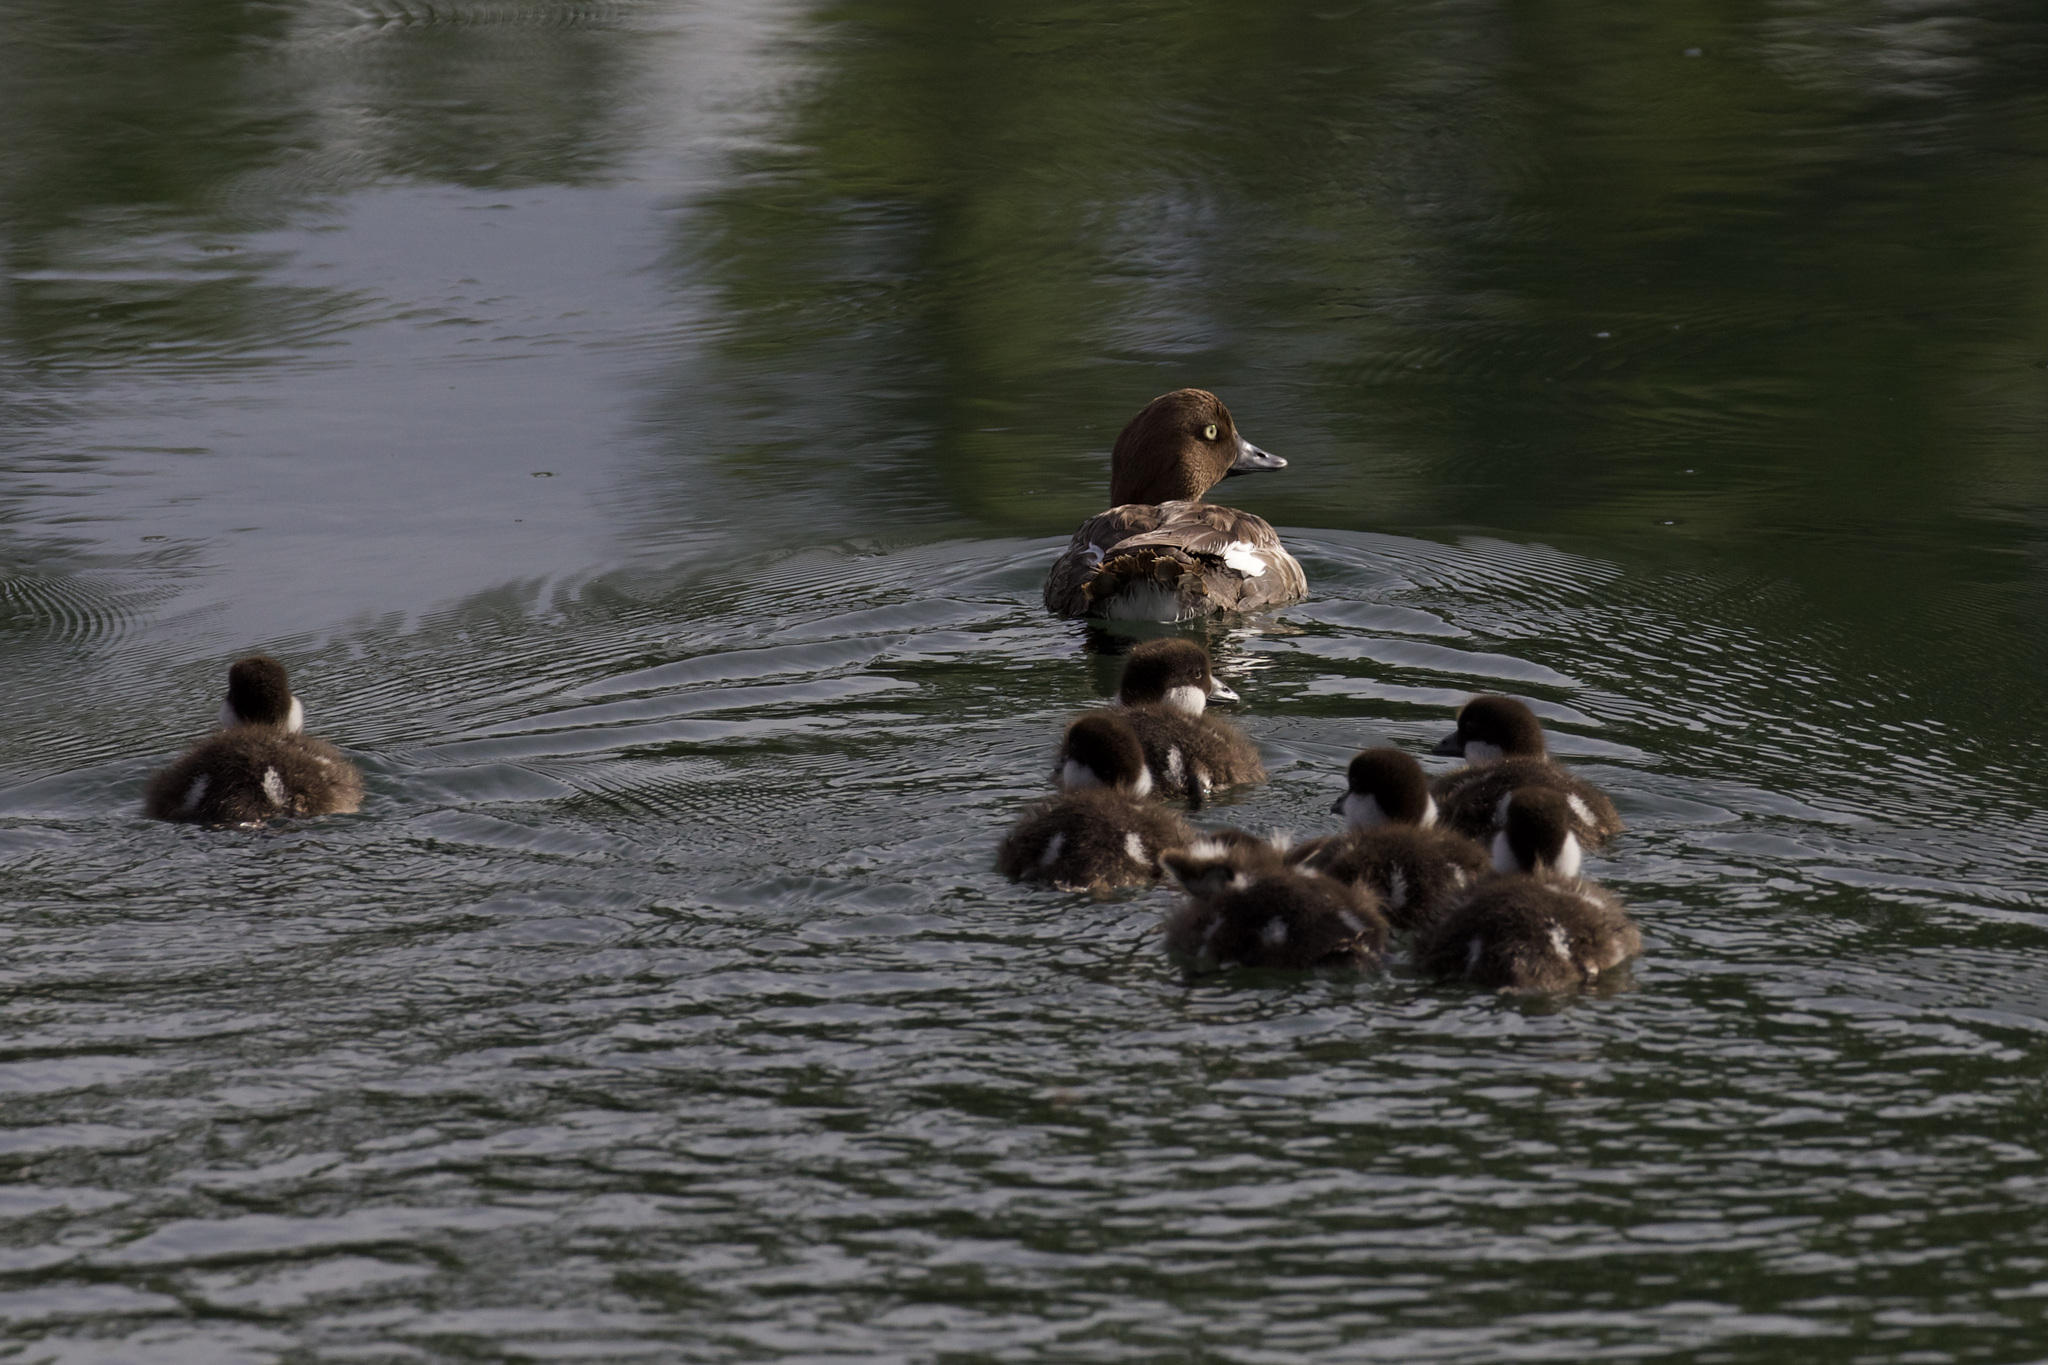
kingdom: Animalia
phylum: Chordata
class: Aves
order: Anseriformes
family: Anatidae
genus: Bucephala
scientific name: Bucephala clangula
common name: Common goldeneye
